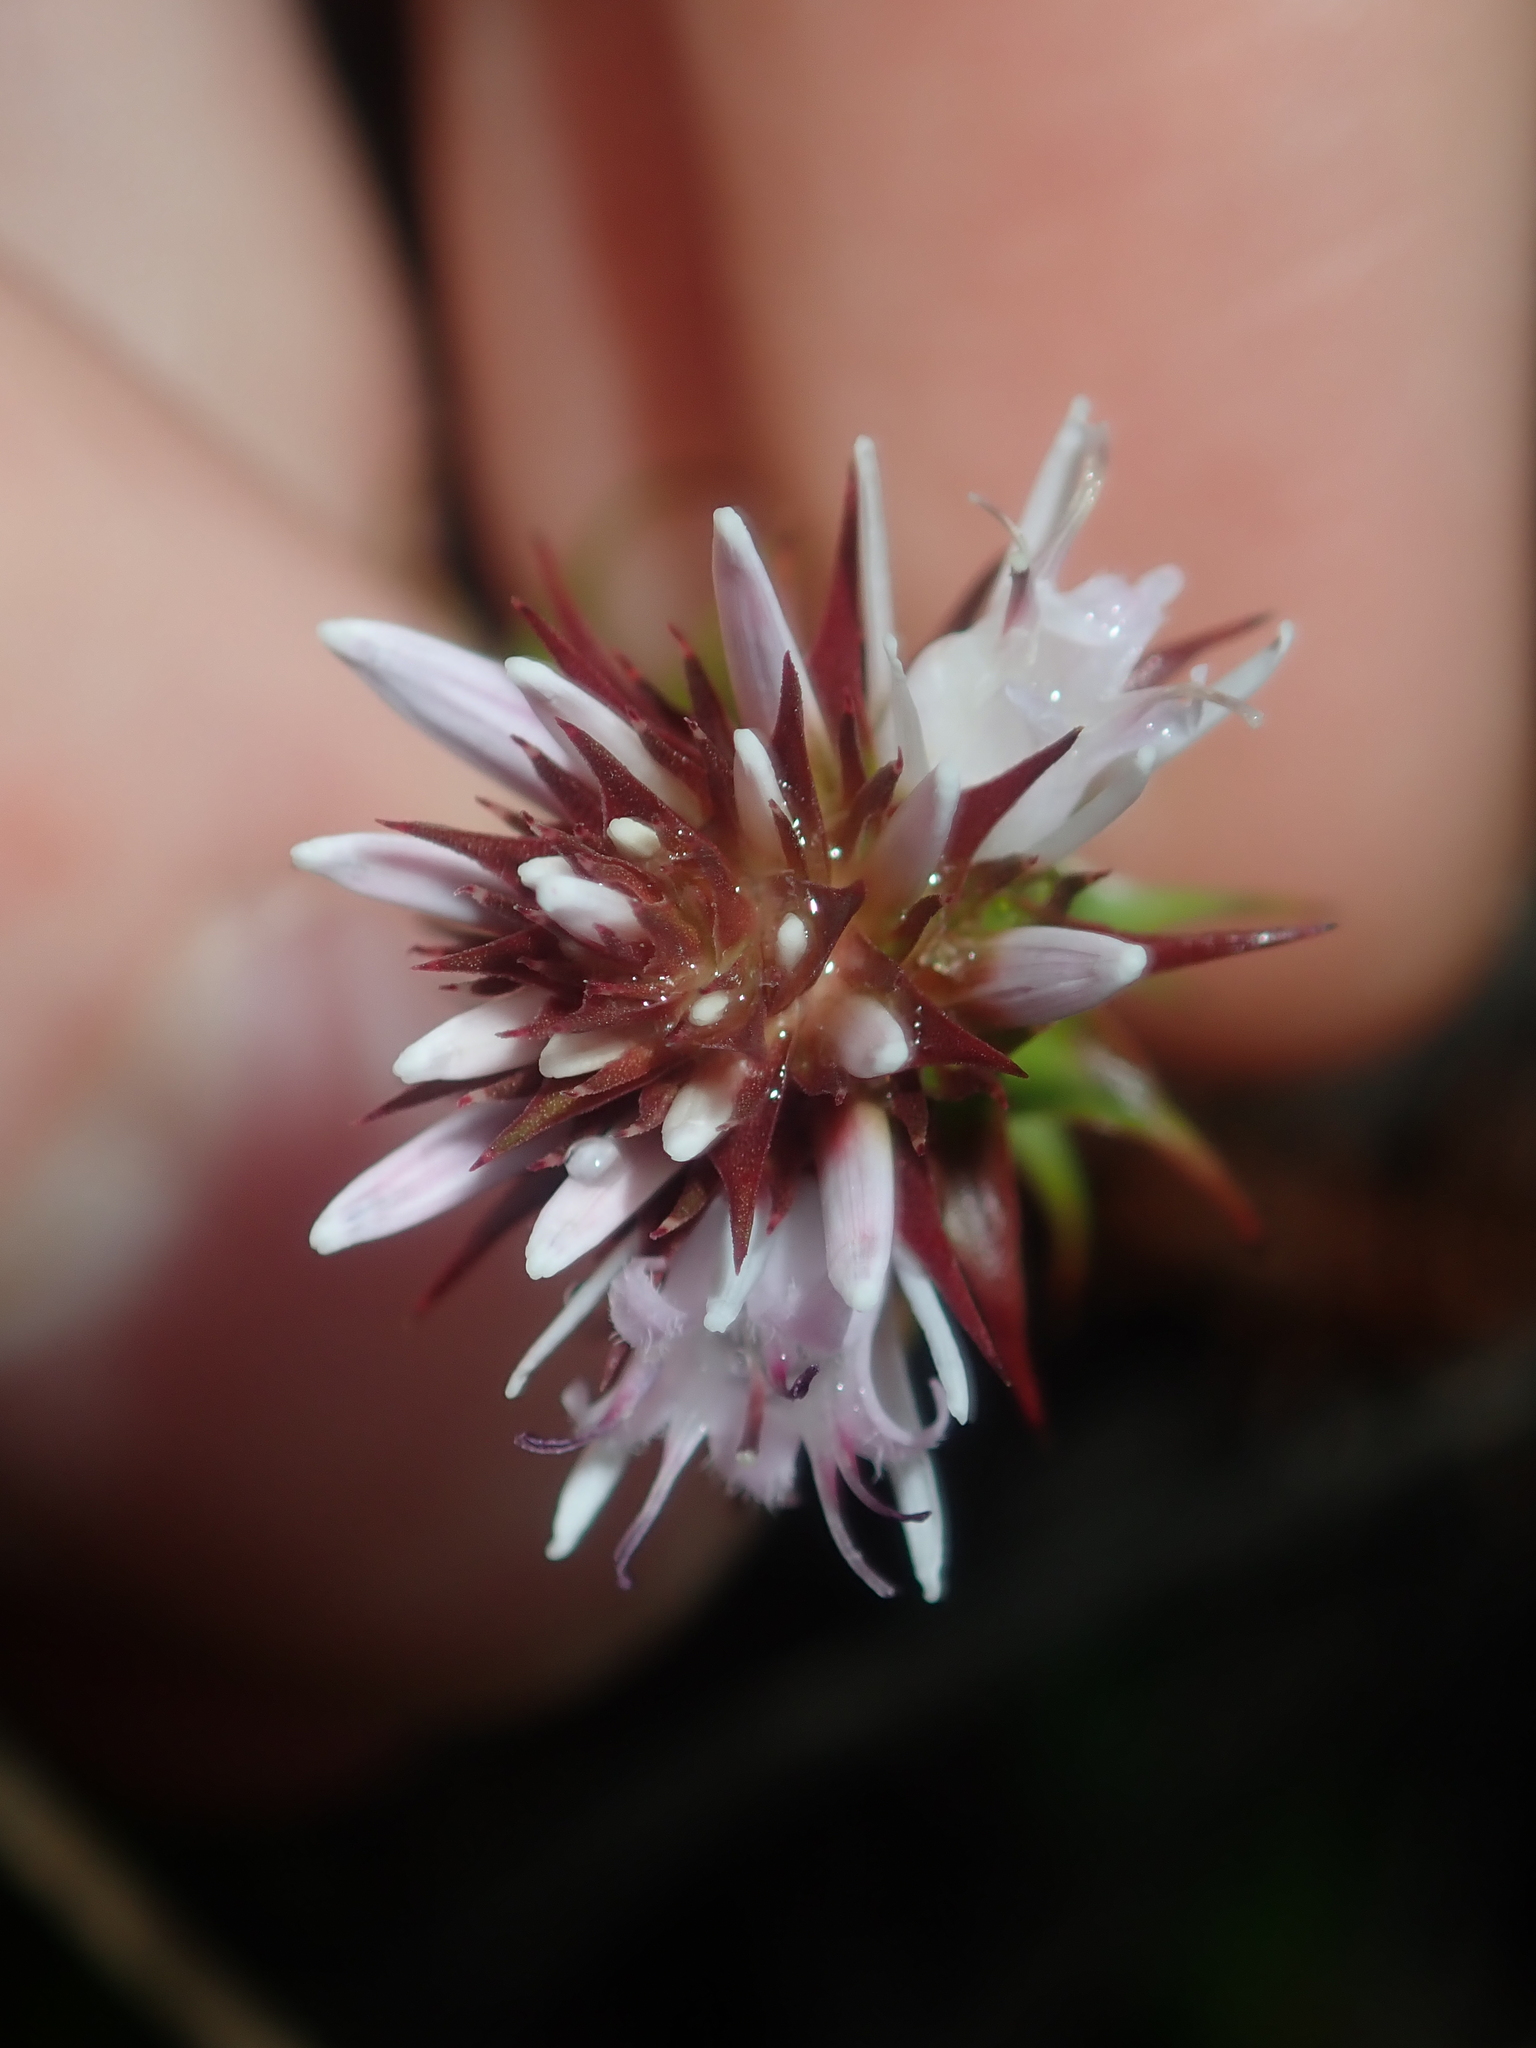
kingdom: Plantae
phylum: Tracheophyta
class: Magnoliopsida
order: Ericales
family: Ericaceae
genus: Andersonia
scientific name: Andersonia lehmanniana
